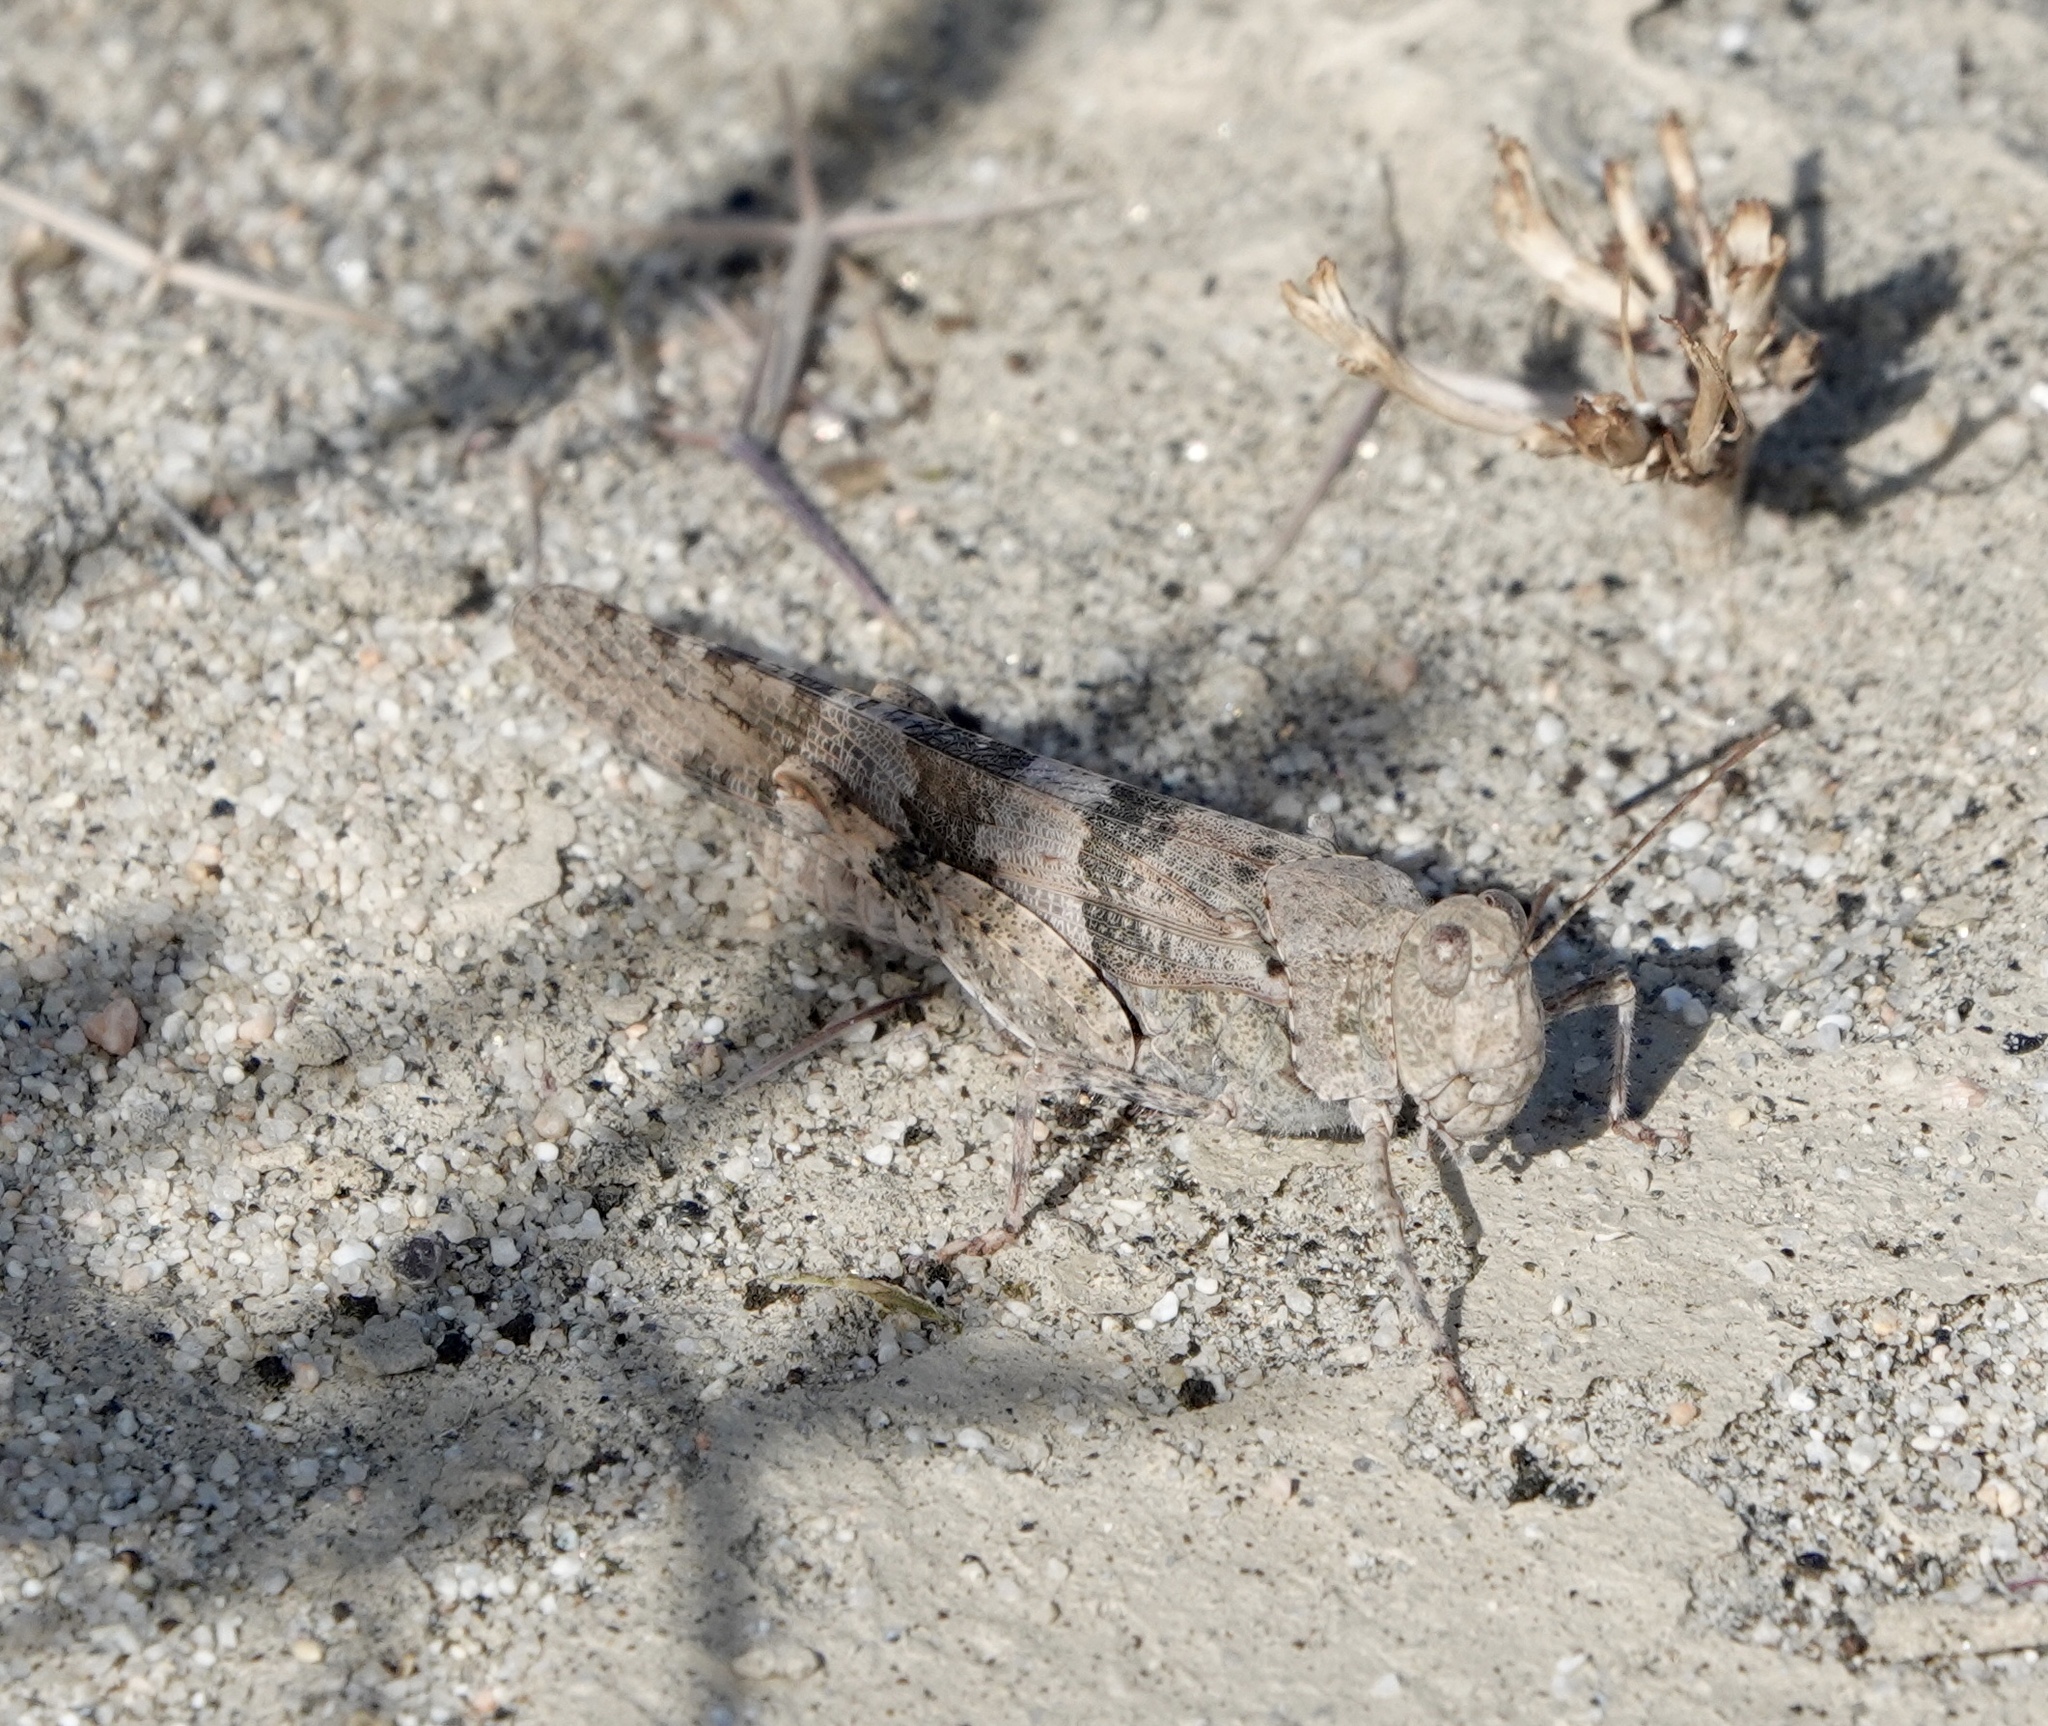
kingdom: Animalia
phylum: Arthropoda
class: Insecta
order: Orthoptera
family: Acrididae
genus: Trimerotropis
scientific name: Trimerotropis pallidipennis
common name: Pallid-winged grasshopper
